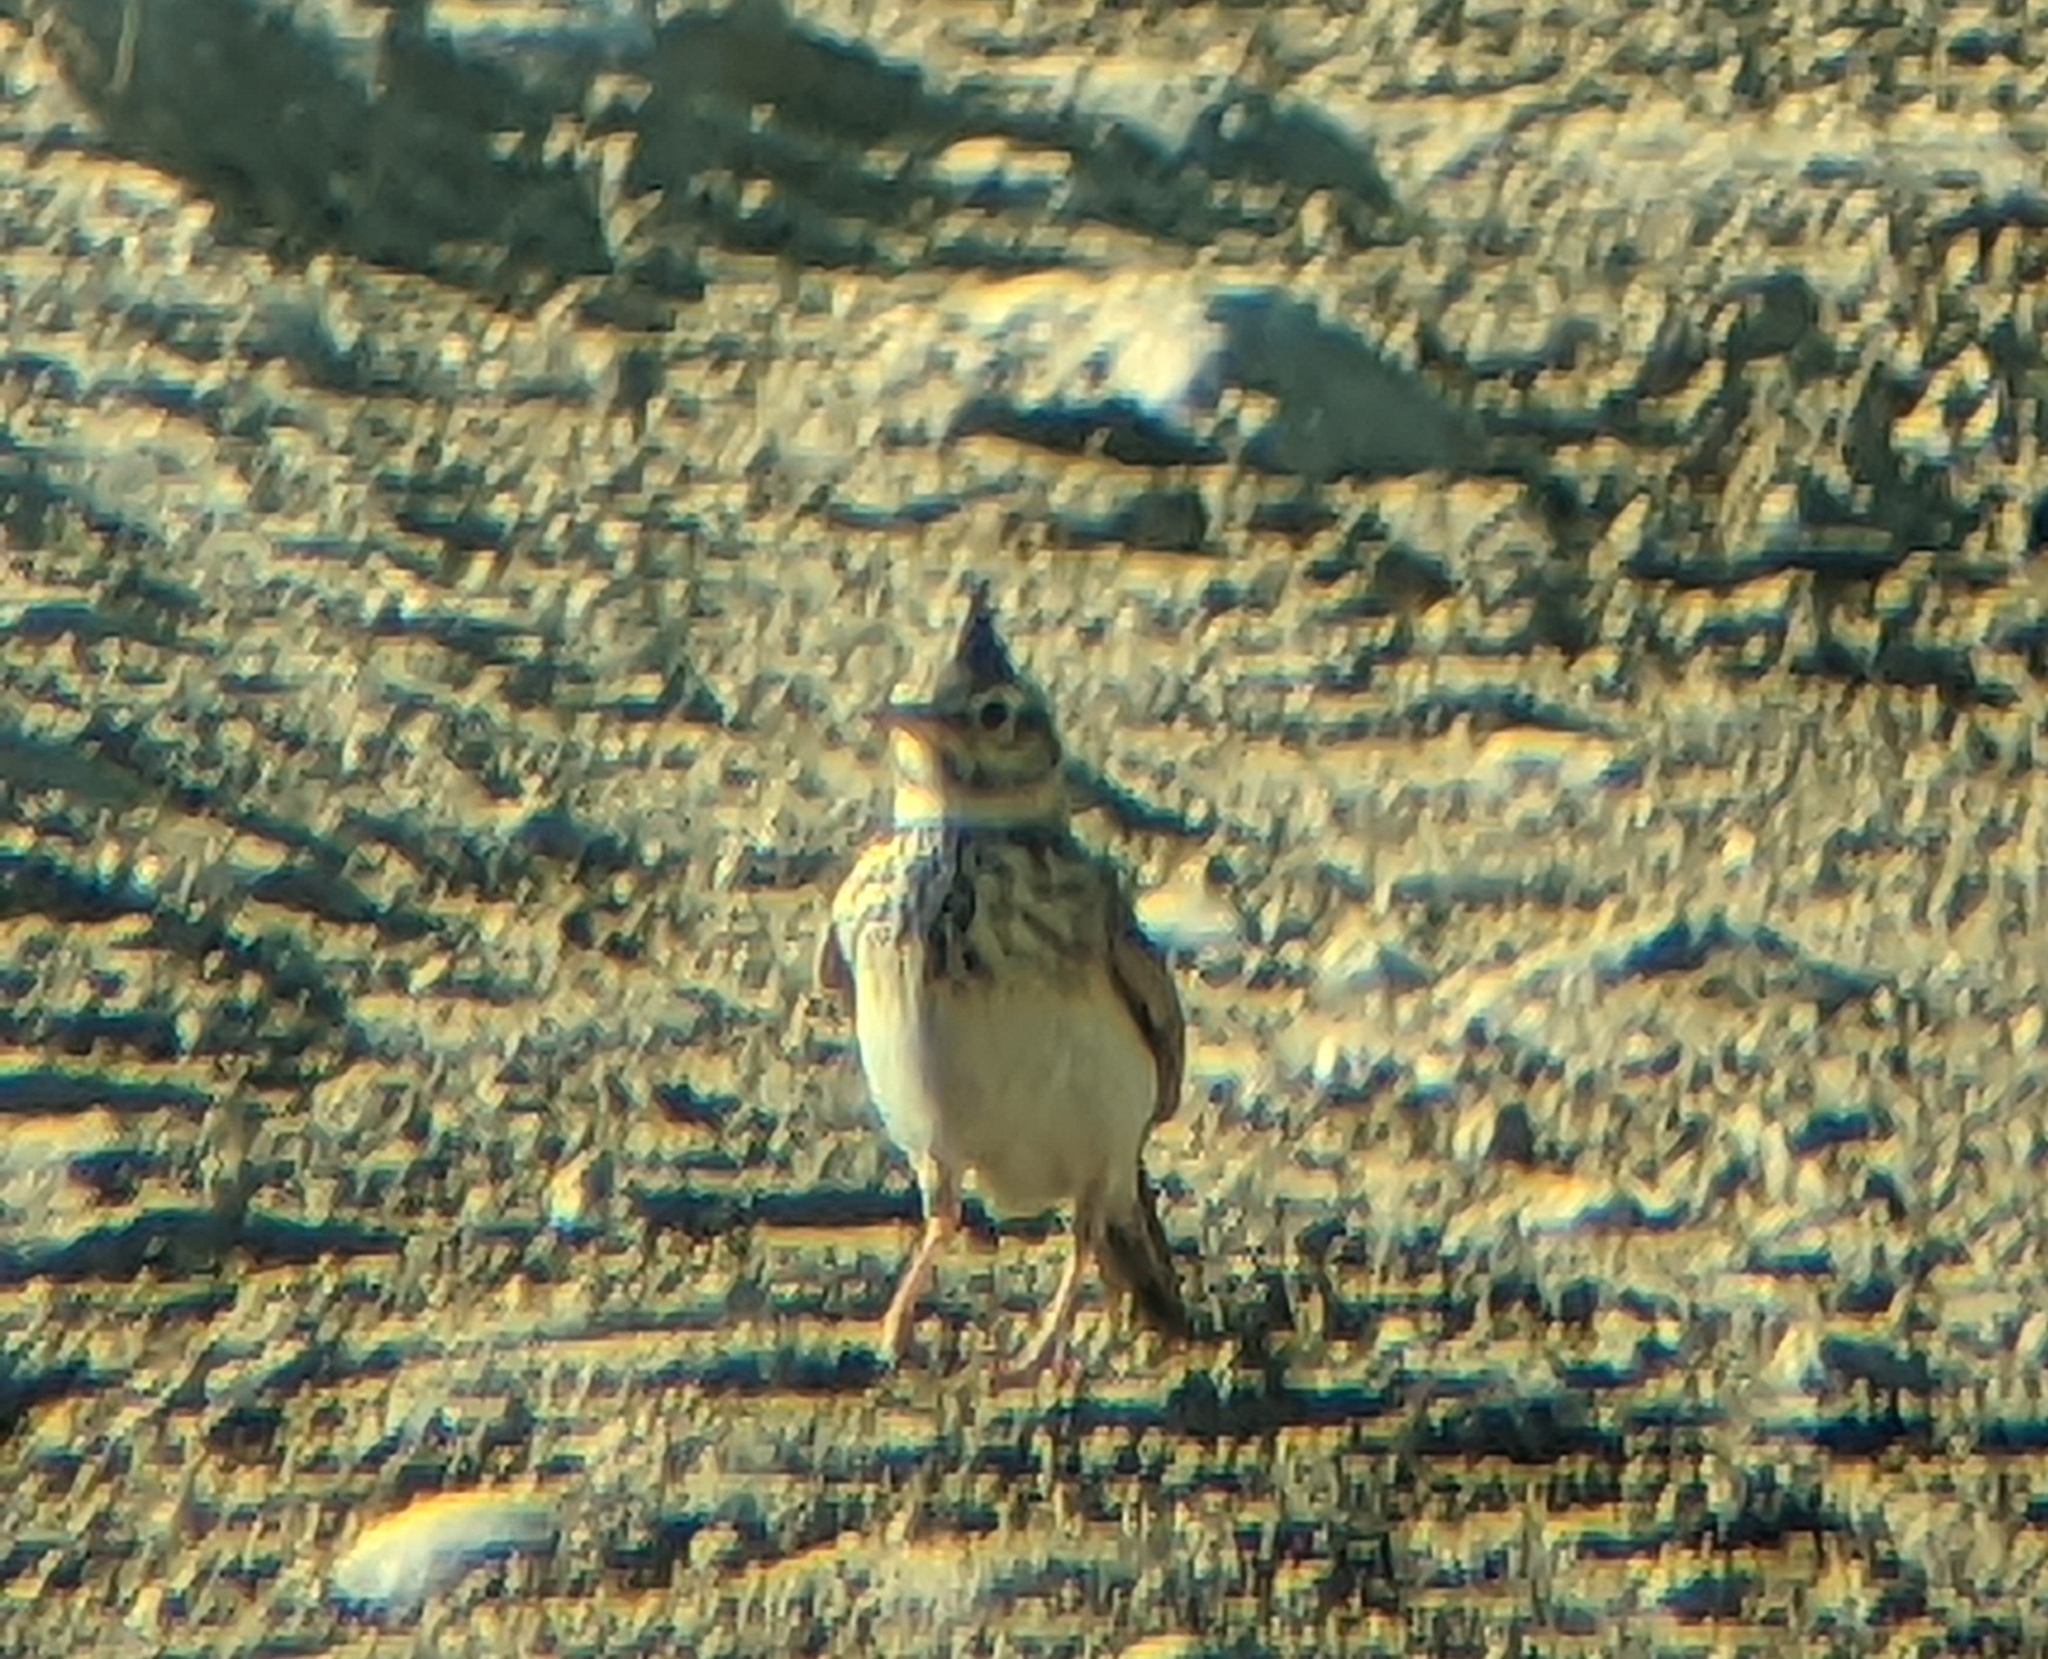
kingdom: Animalia
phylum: Chordata
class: Aves
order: Passeriformes
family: Alaudidae
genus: Galerida
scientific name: Galerida cristata
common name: Crested lark
